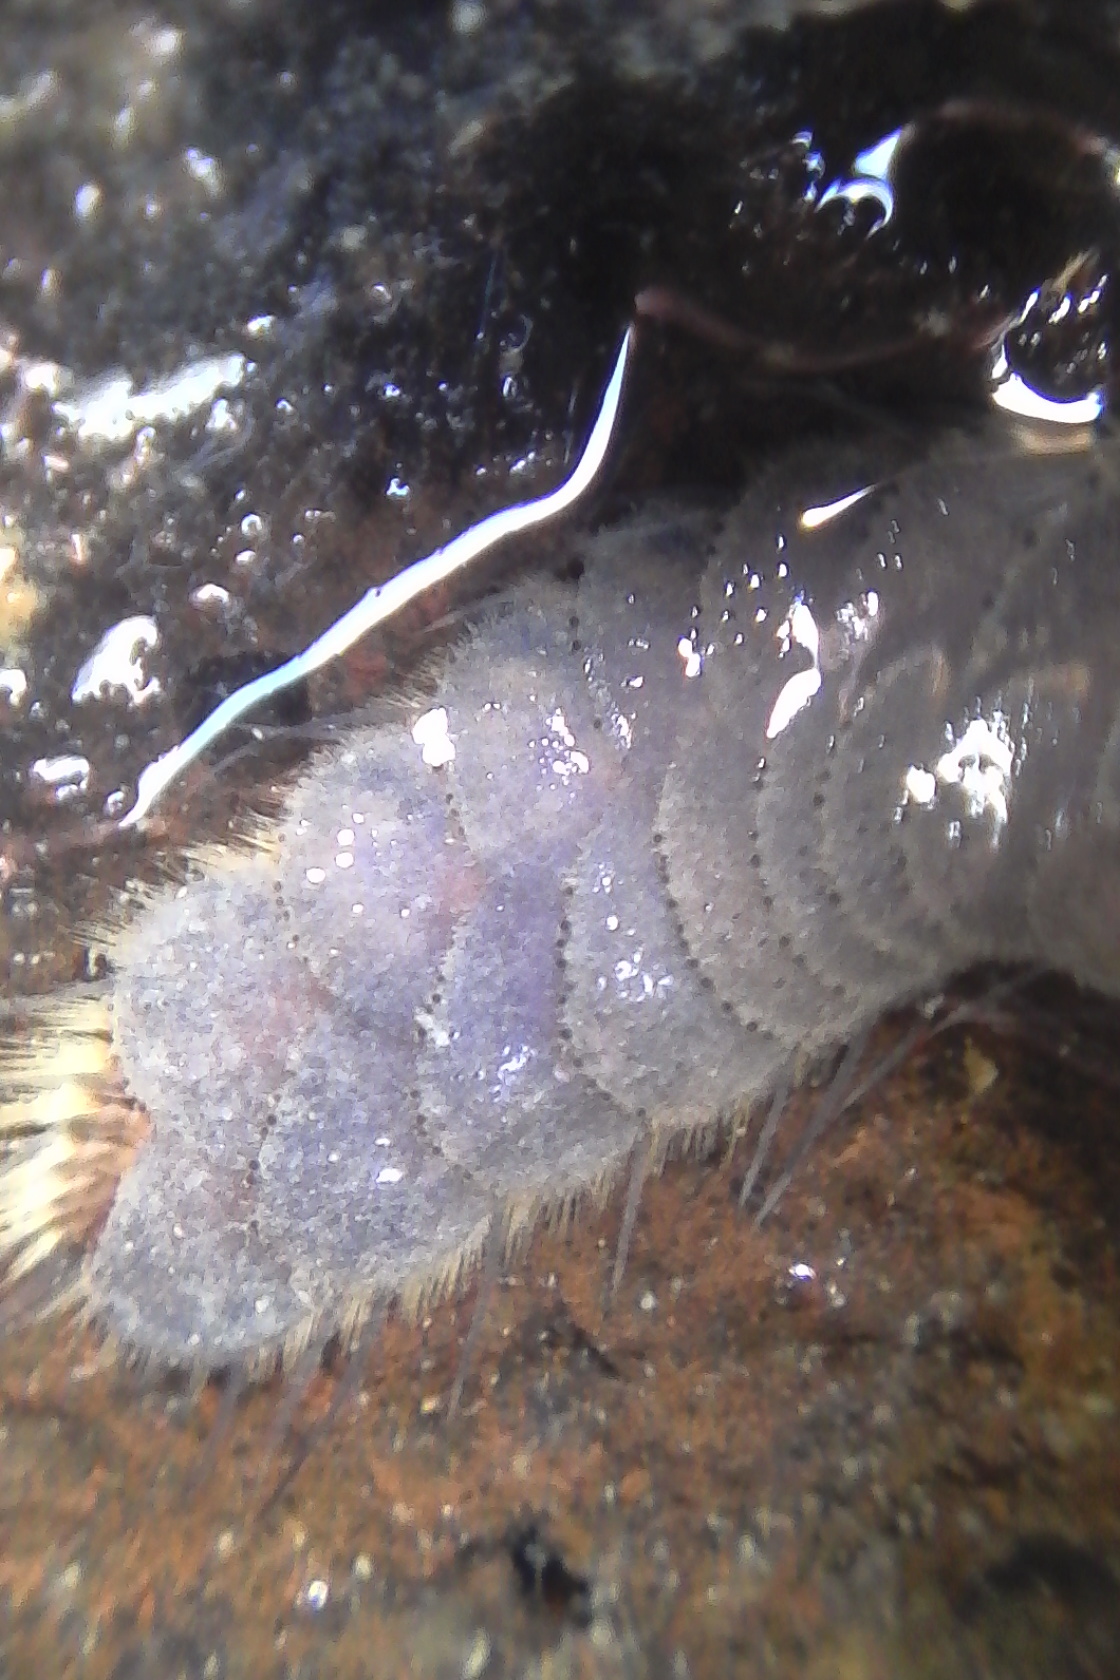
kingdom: Animalia
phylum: Annelida
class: Polychaeta
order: Phyllodocida
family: Polynoidae
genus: Paralepidonotus
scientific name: Paralepidonotus ampulliferus
